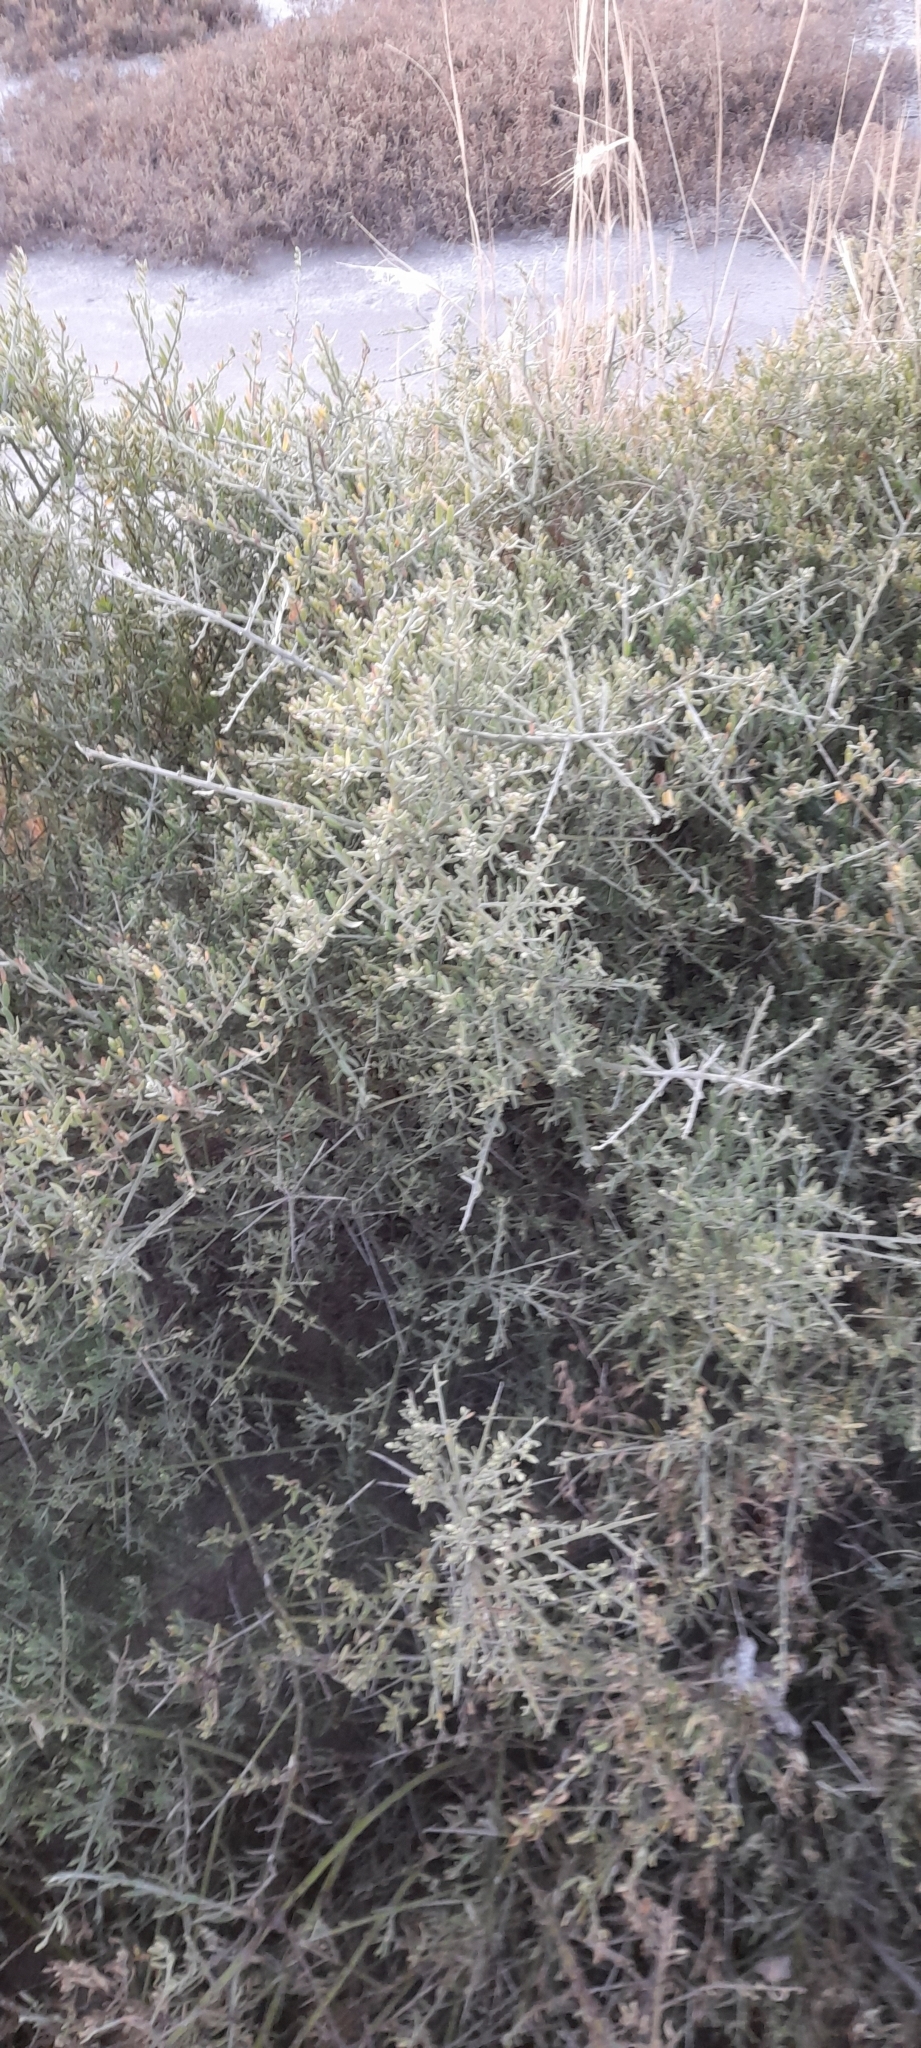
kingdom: Plantae
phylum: Tracheophyta
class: Magnoliopsida
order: Asterales
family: Asteraceae
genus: Cyclolepis
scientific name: Cyclolepis genistoides
